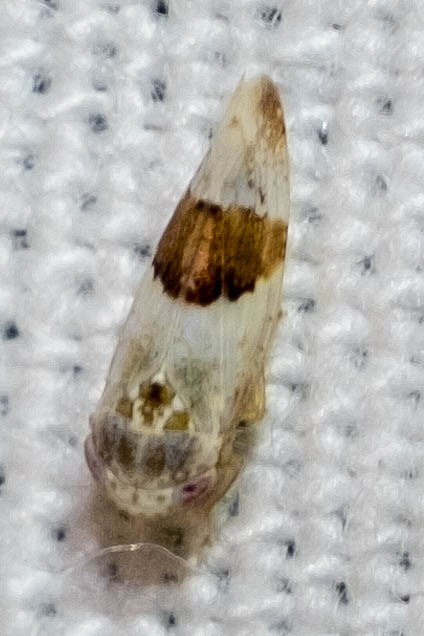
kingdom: Animalia
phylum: Arthropoda
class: Insecta
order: Hemiptera
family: Cicadellidae
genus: Norvellina
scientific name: Norvellina seminuda
